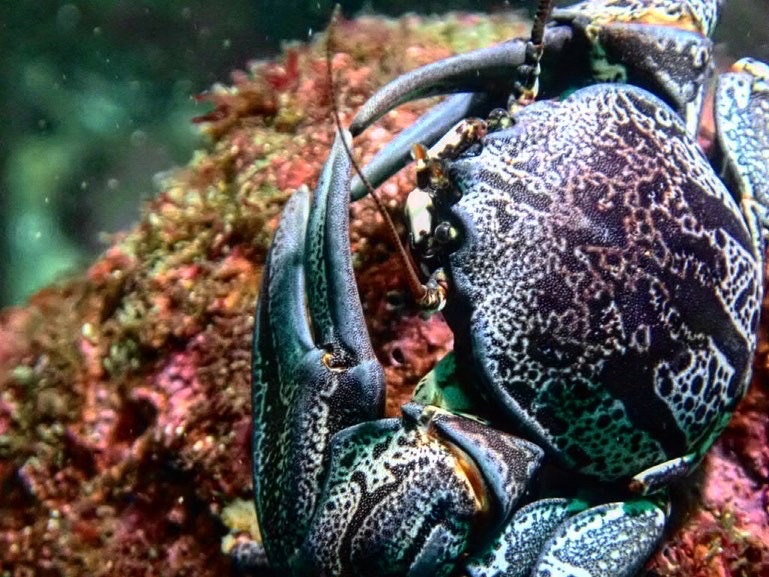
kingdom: Animalia
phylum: Arthropoda
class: Malacostraca
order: Decapoda
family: Porcellanidae
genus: Petrolisthes
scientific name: Petrolisthes punctatus
